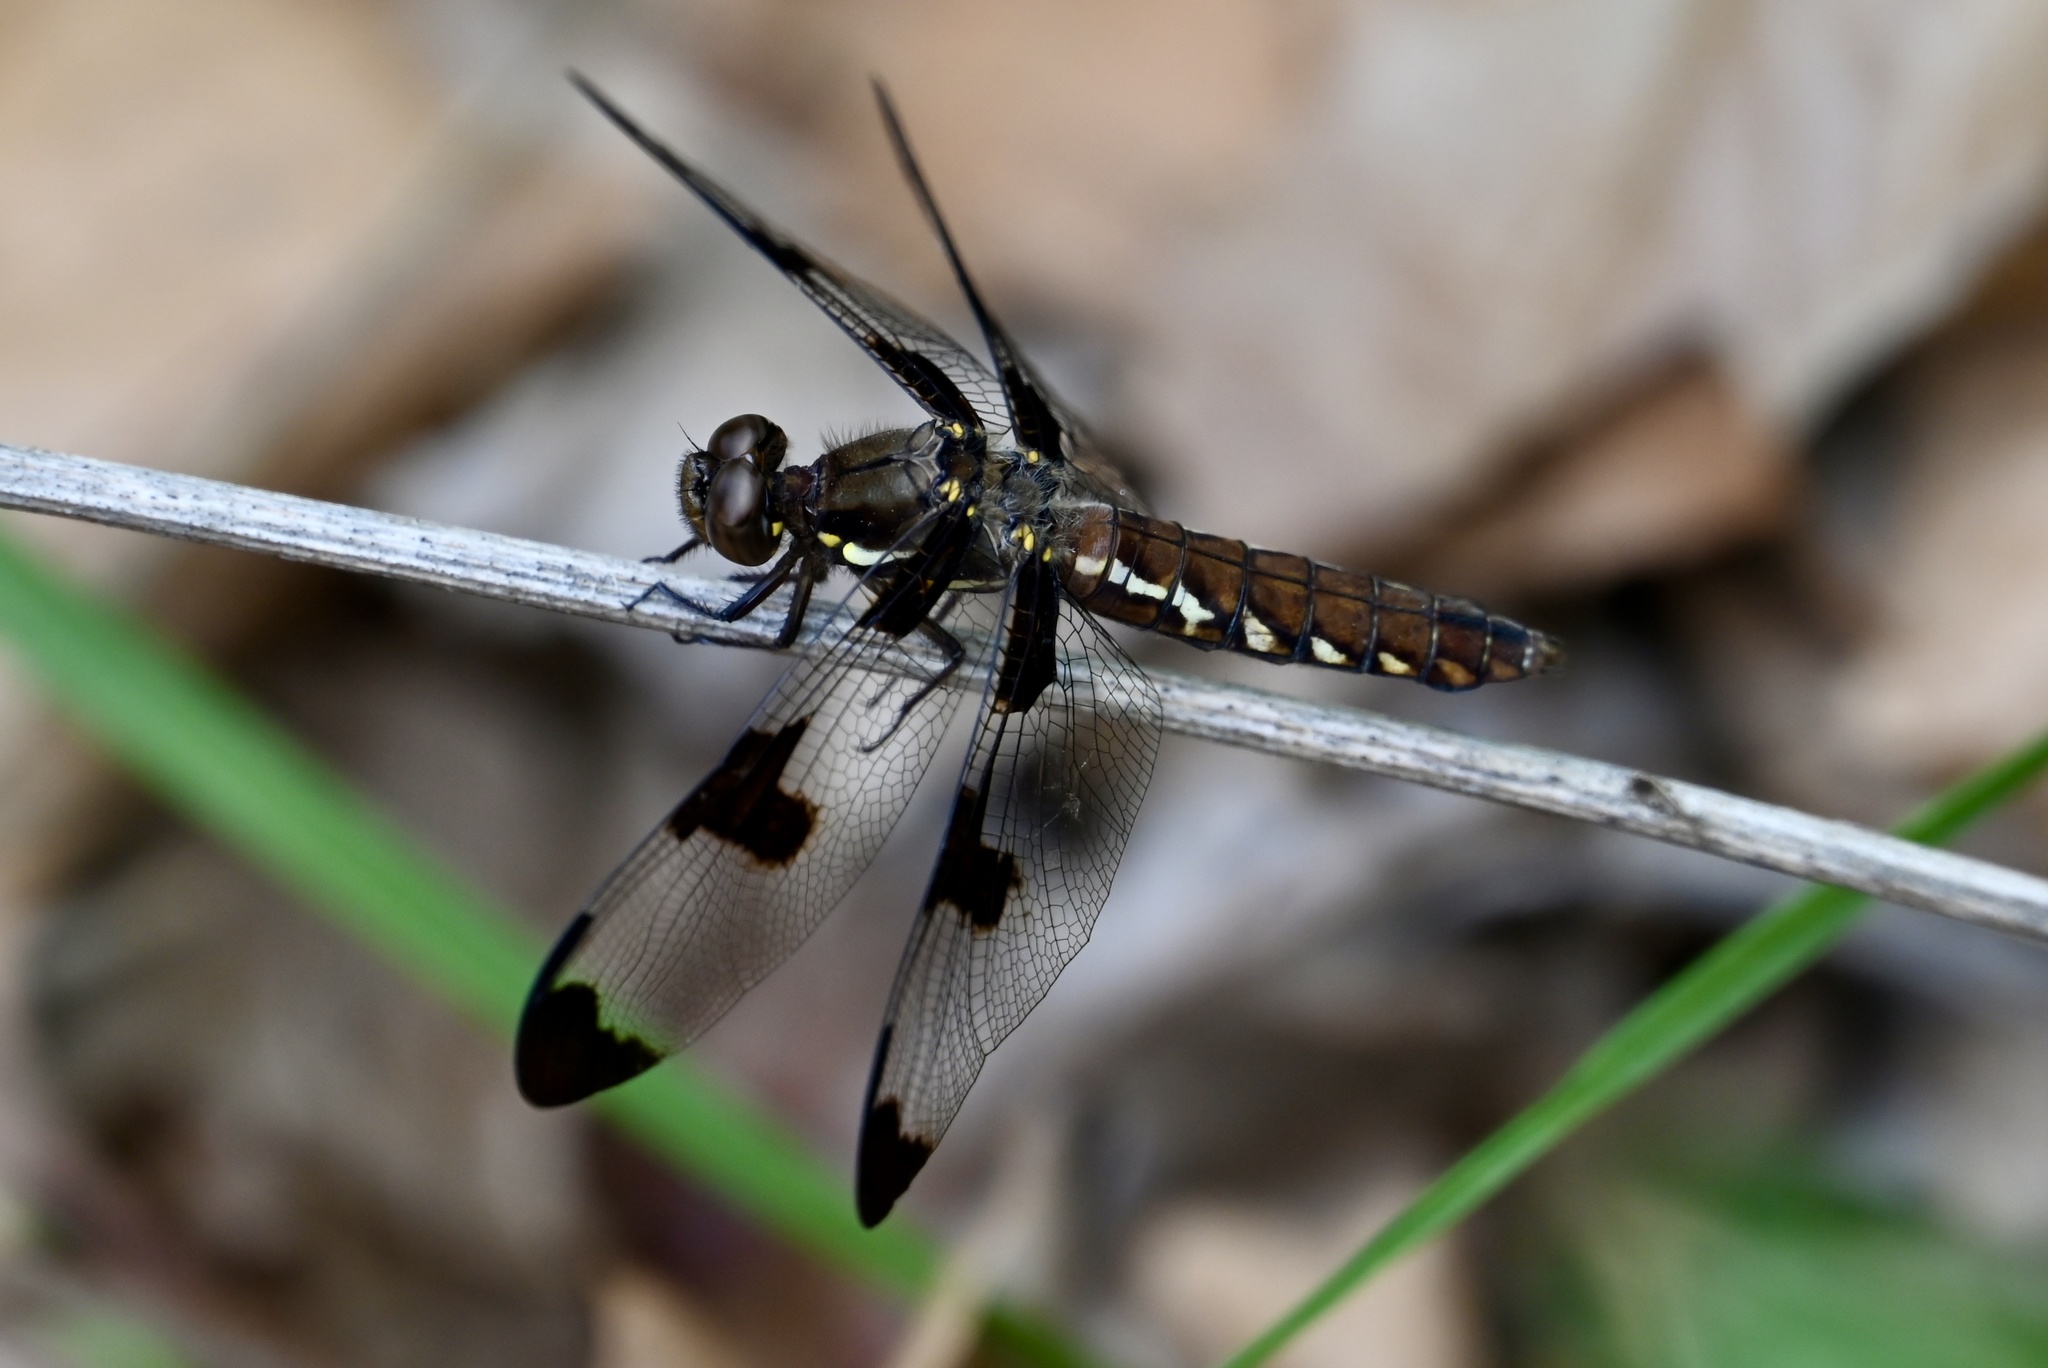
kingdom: Animalia
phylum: Arthropoda
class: Insecta
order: Odonata
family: Libellulidae
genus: Plathemis
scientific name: Plathemis lydia
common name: Common whitetail
